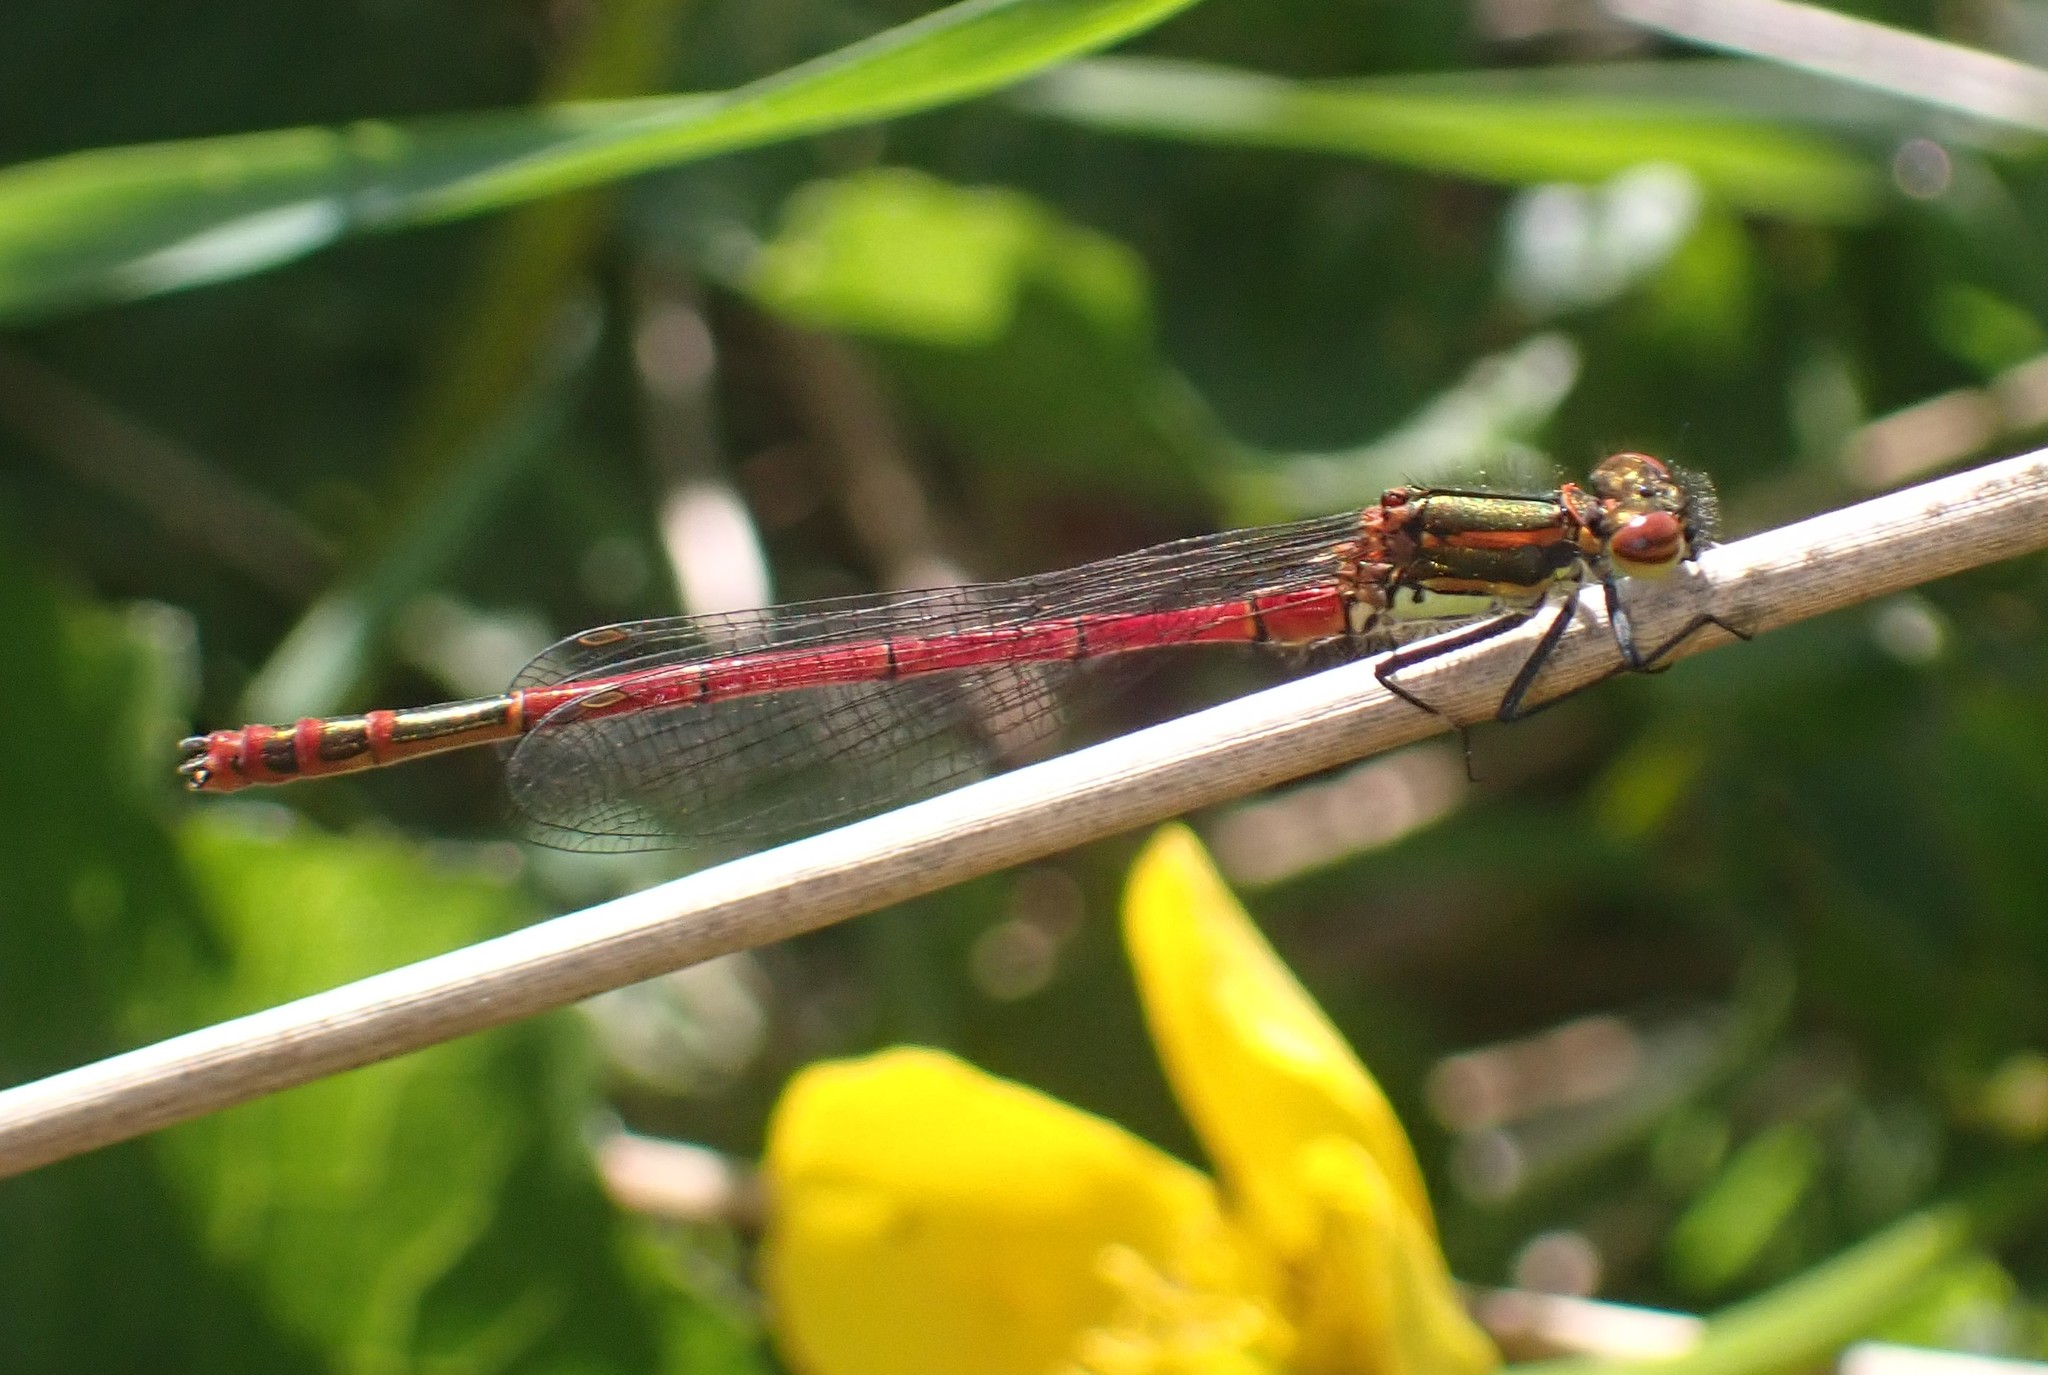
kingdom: Animalia
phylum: Arthropoda
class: Insecta
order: Odonata
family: Coenagrionidae
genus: Pyrrhosoma
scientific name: Pyrrhosoma nymphula
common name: Large red damsel
